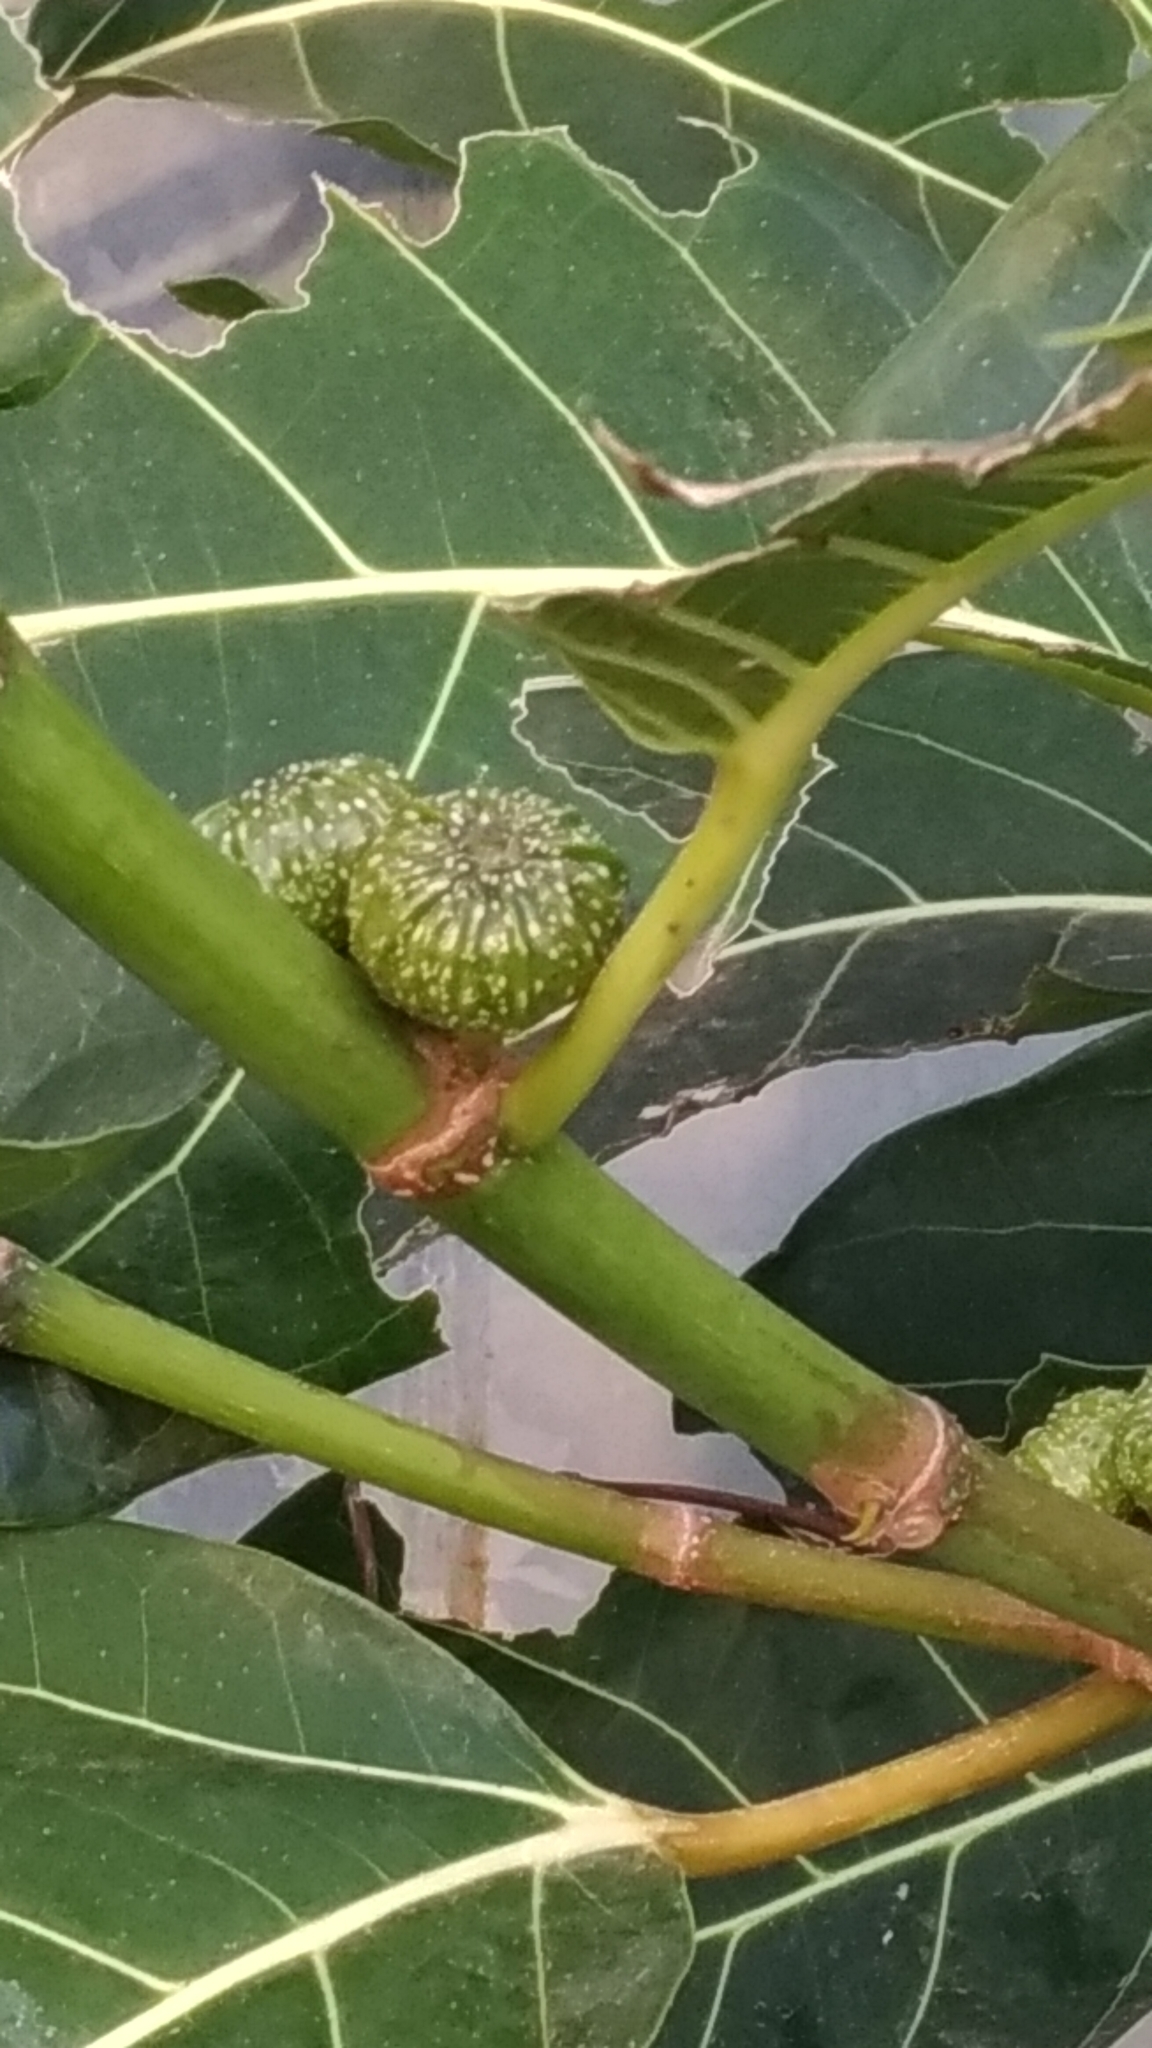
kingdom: Plantae
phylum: Tracheophyta
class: Magnoliopsida
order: Rosales
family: Moraceae
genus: Ficus
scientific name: Ficus septica
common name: Septic fig
